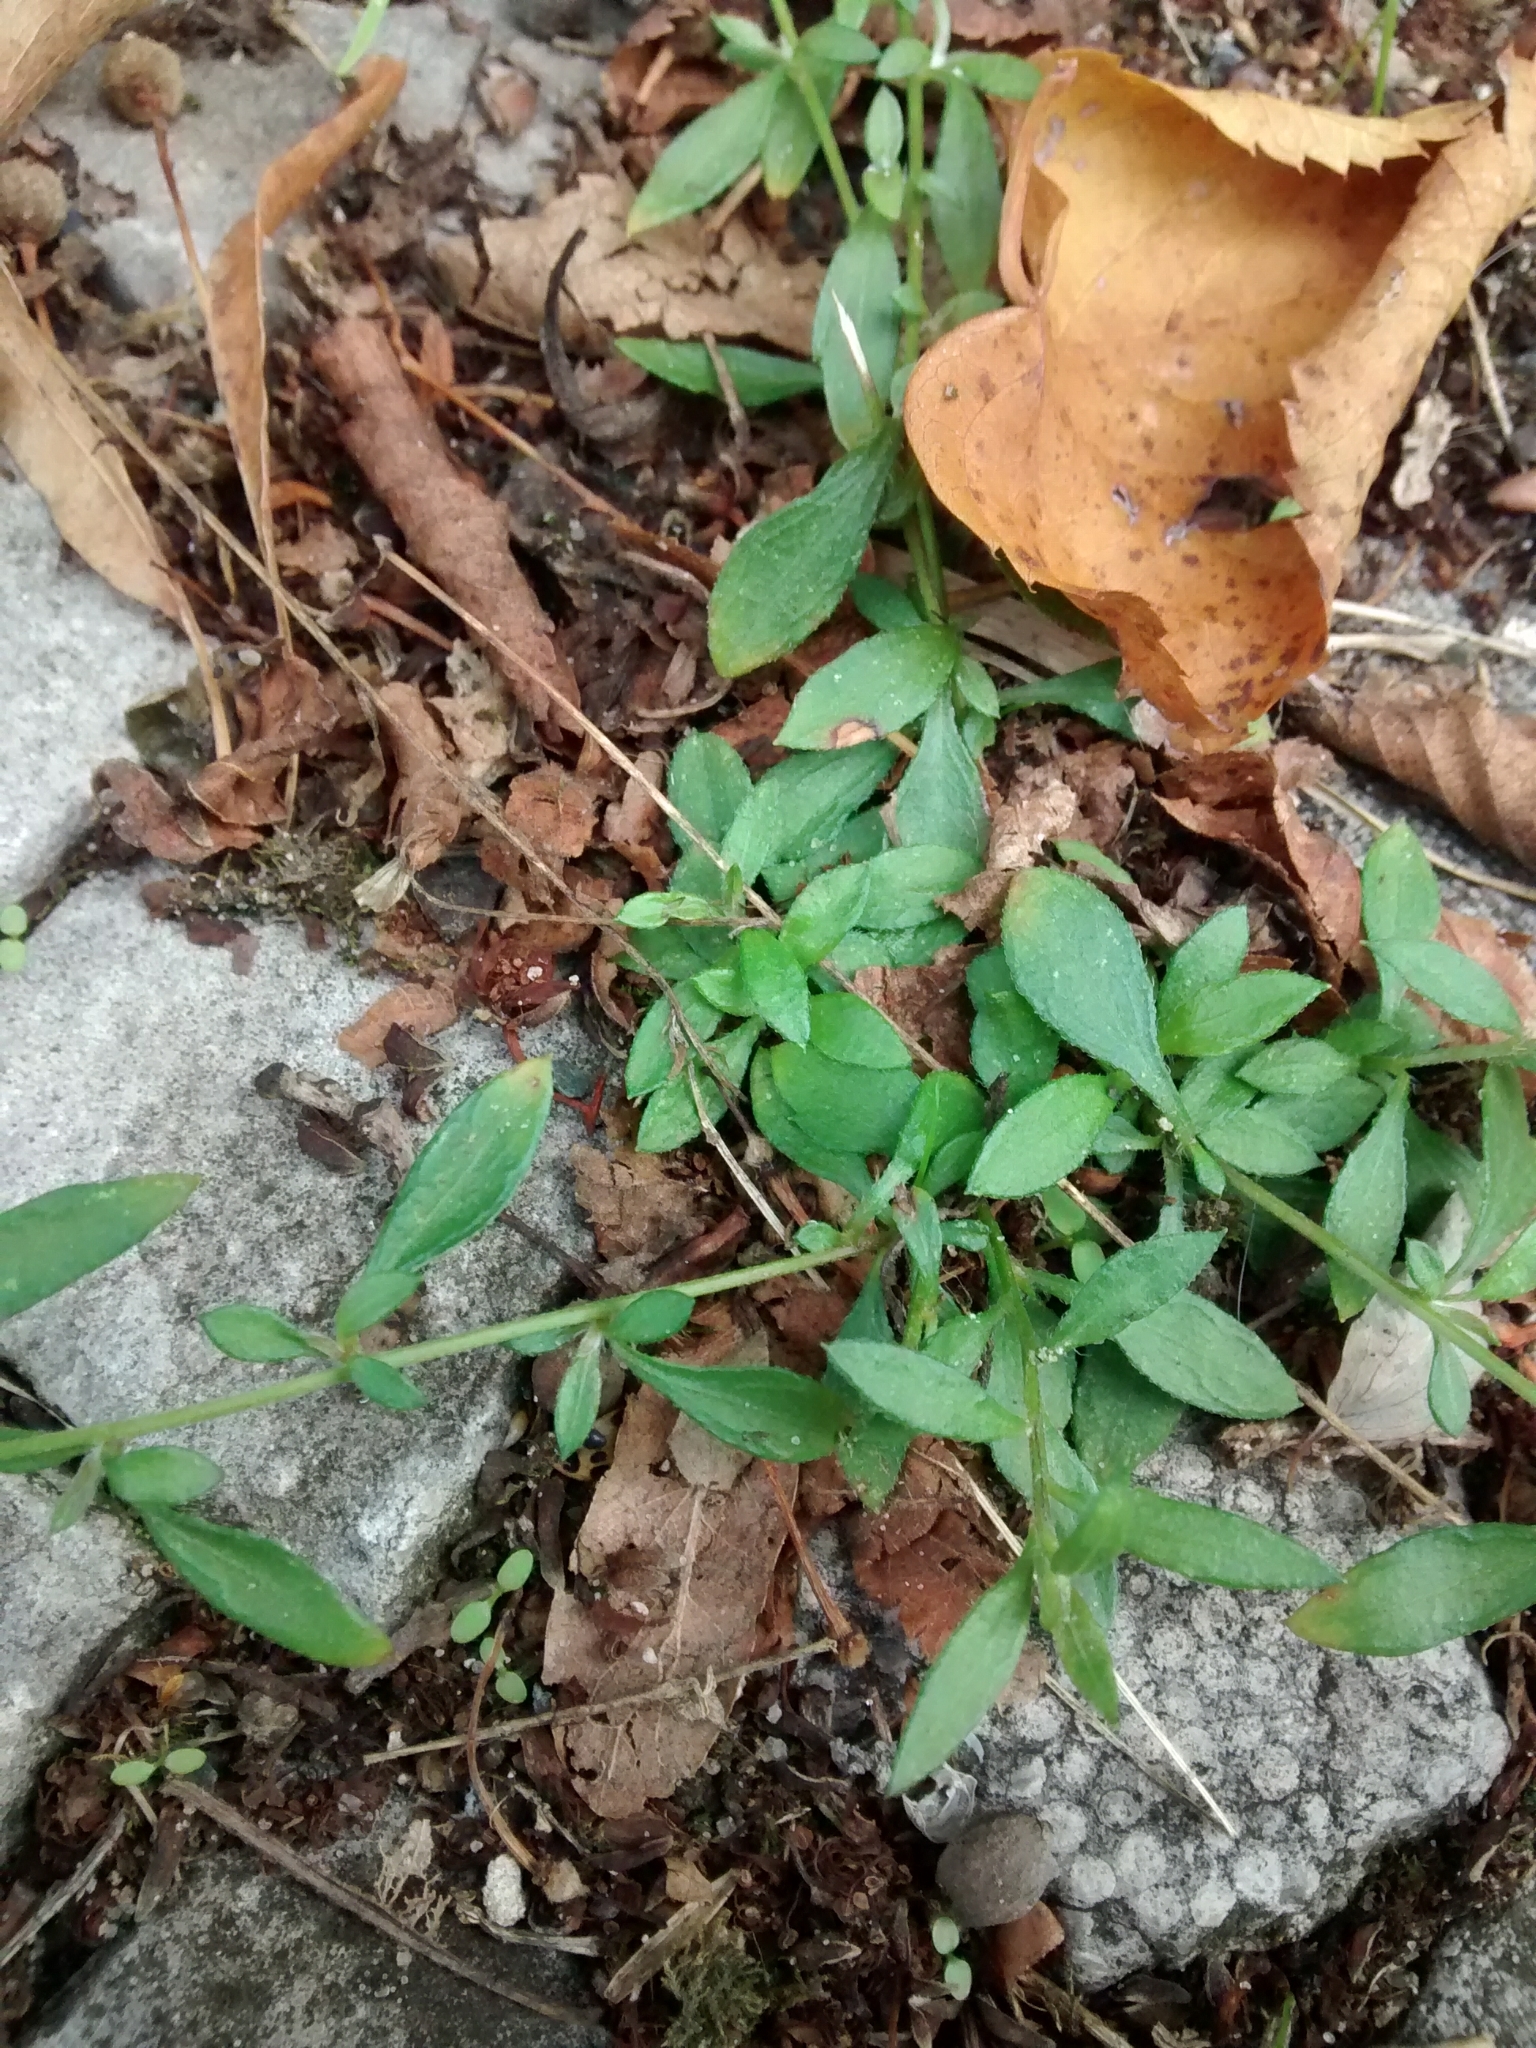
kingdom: Plantae
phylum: Tracheophyta
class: Magnoliopsida
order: Asterales
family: Asteraceae
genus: Erigeron
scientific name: Erigeron karvinskianus
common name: Mexican fleabane
